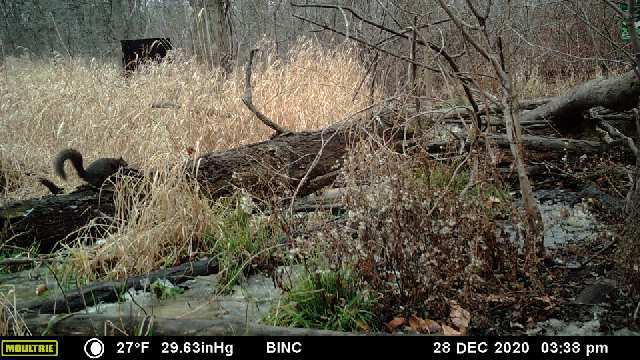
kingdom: Animalia
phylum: Chordata
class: Mammalia
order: Rodentia
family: Sciuridae
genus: Sciurus
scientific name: Sciurus carolinensis
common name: Eastern gray squirrel
